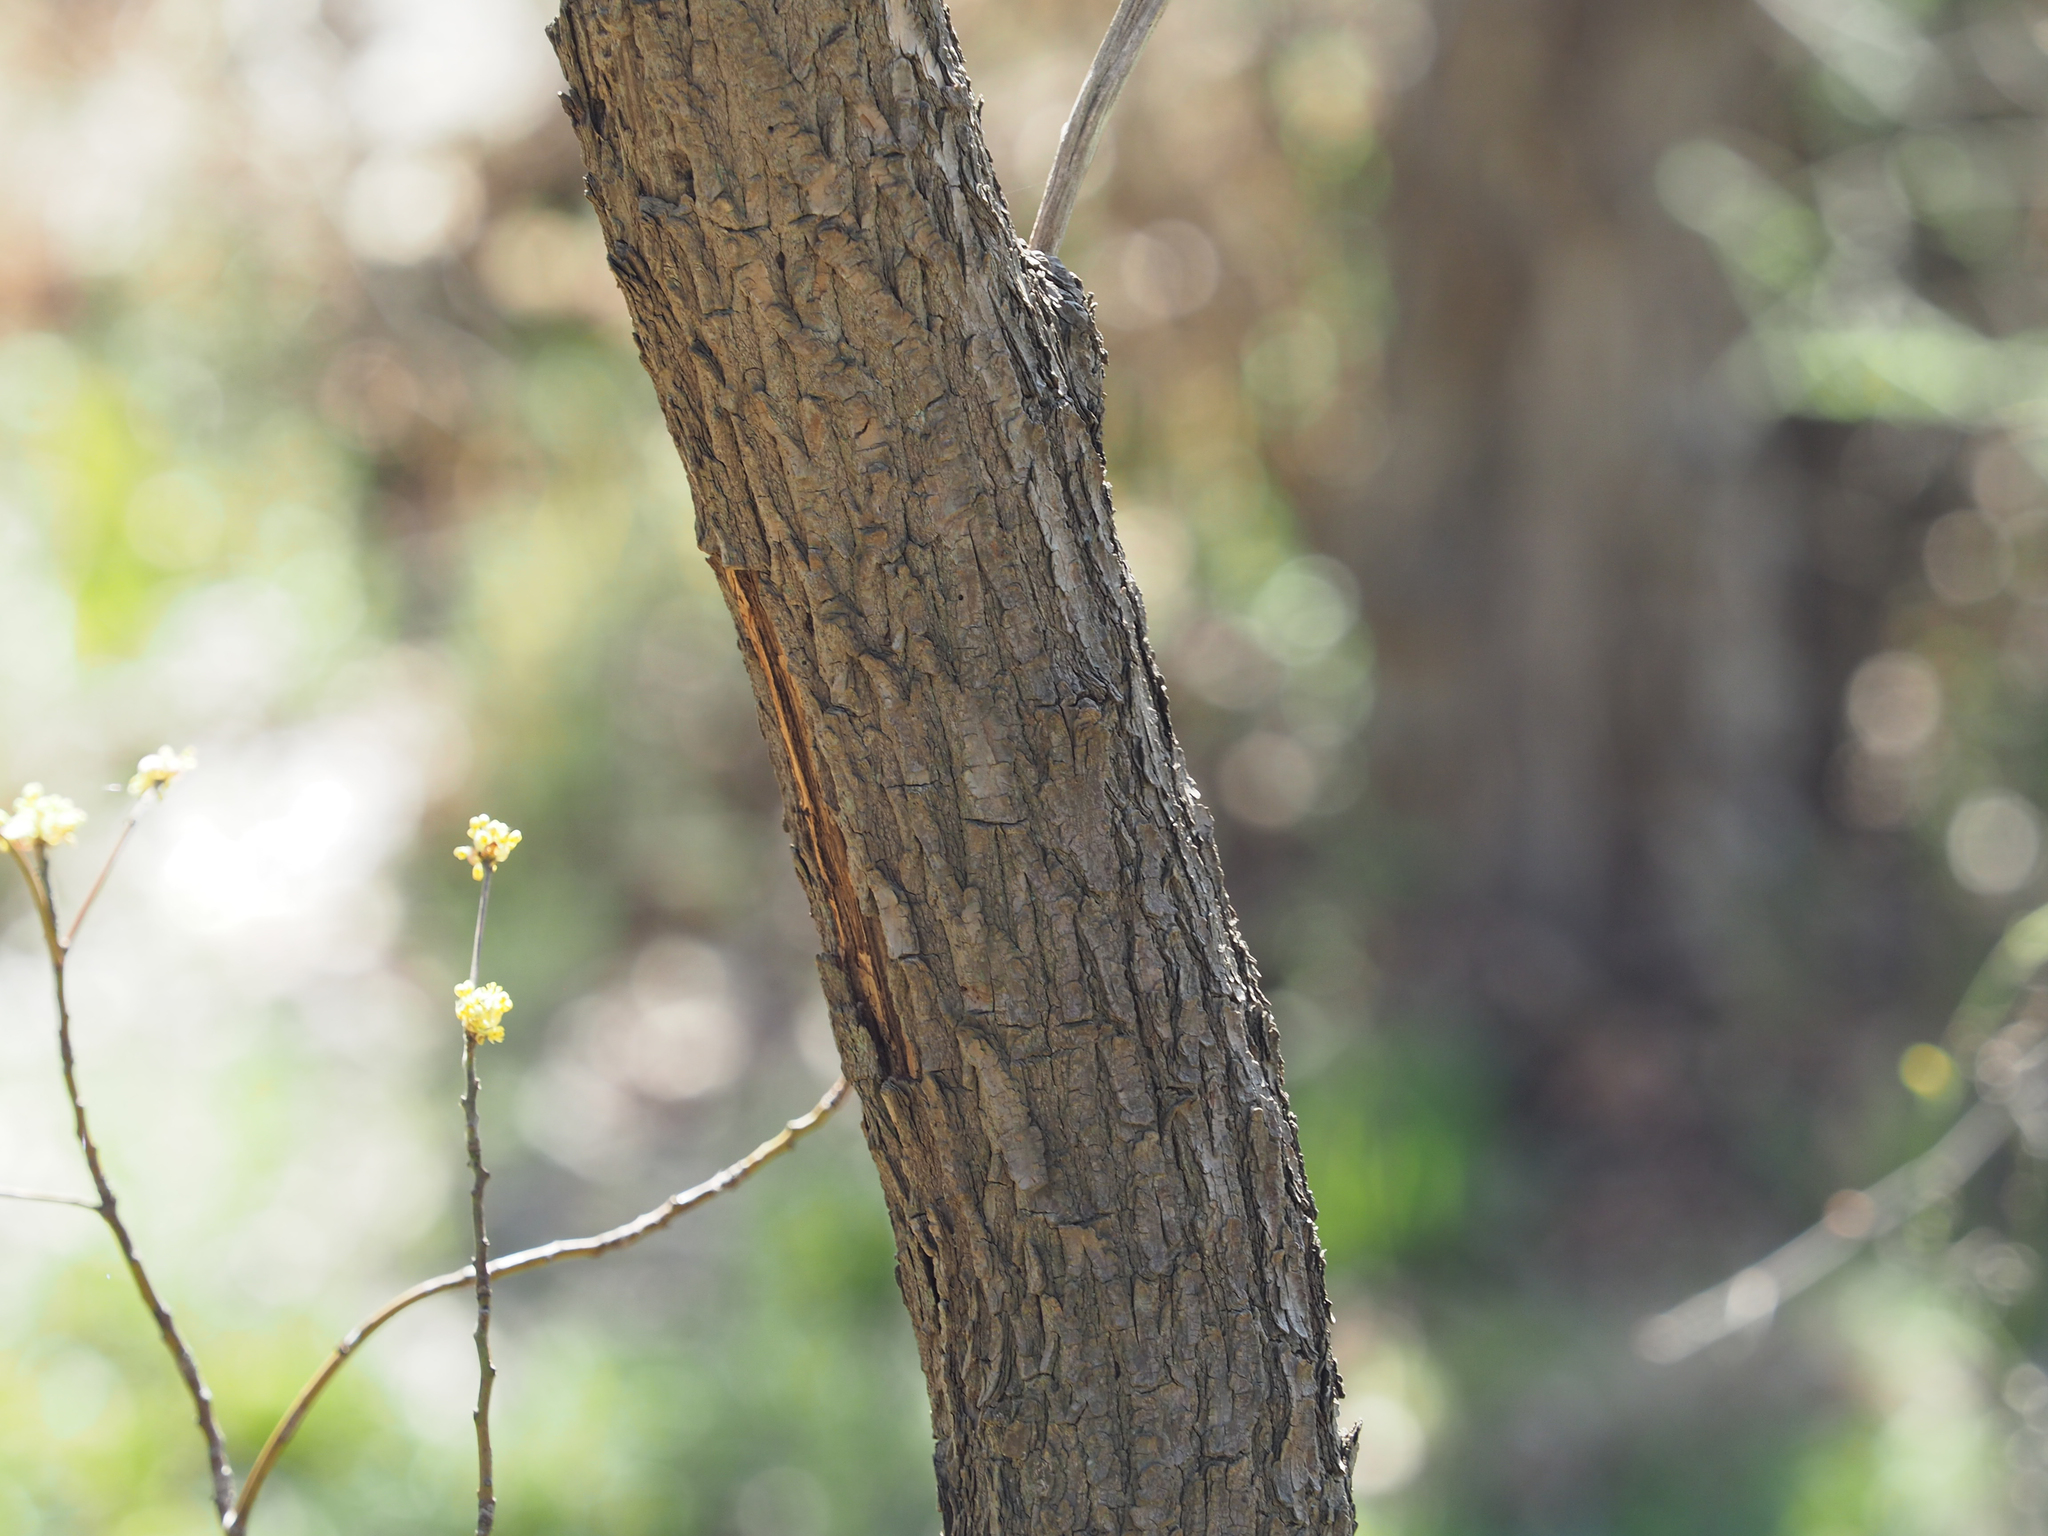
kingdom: Plantae
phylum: Tracheophyta
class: Magnoliopsida
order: Laurales
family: Lauraceae
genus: Sassafras
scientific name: Sassafras albidum
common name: Sassafras
